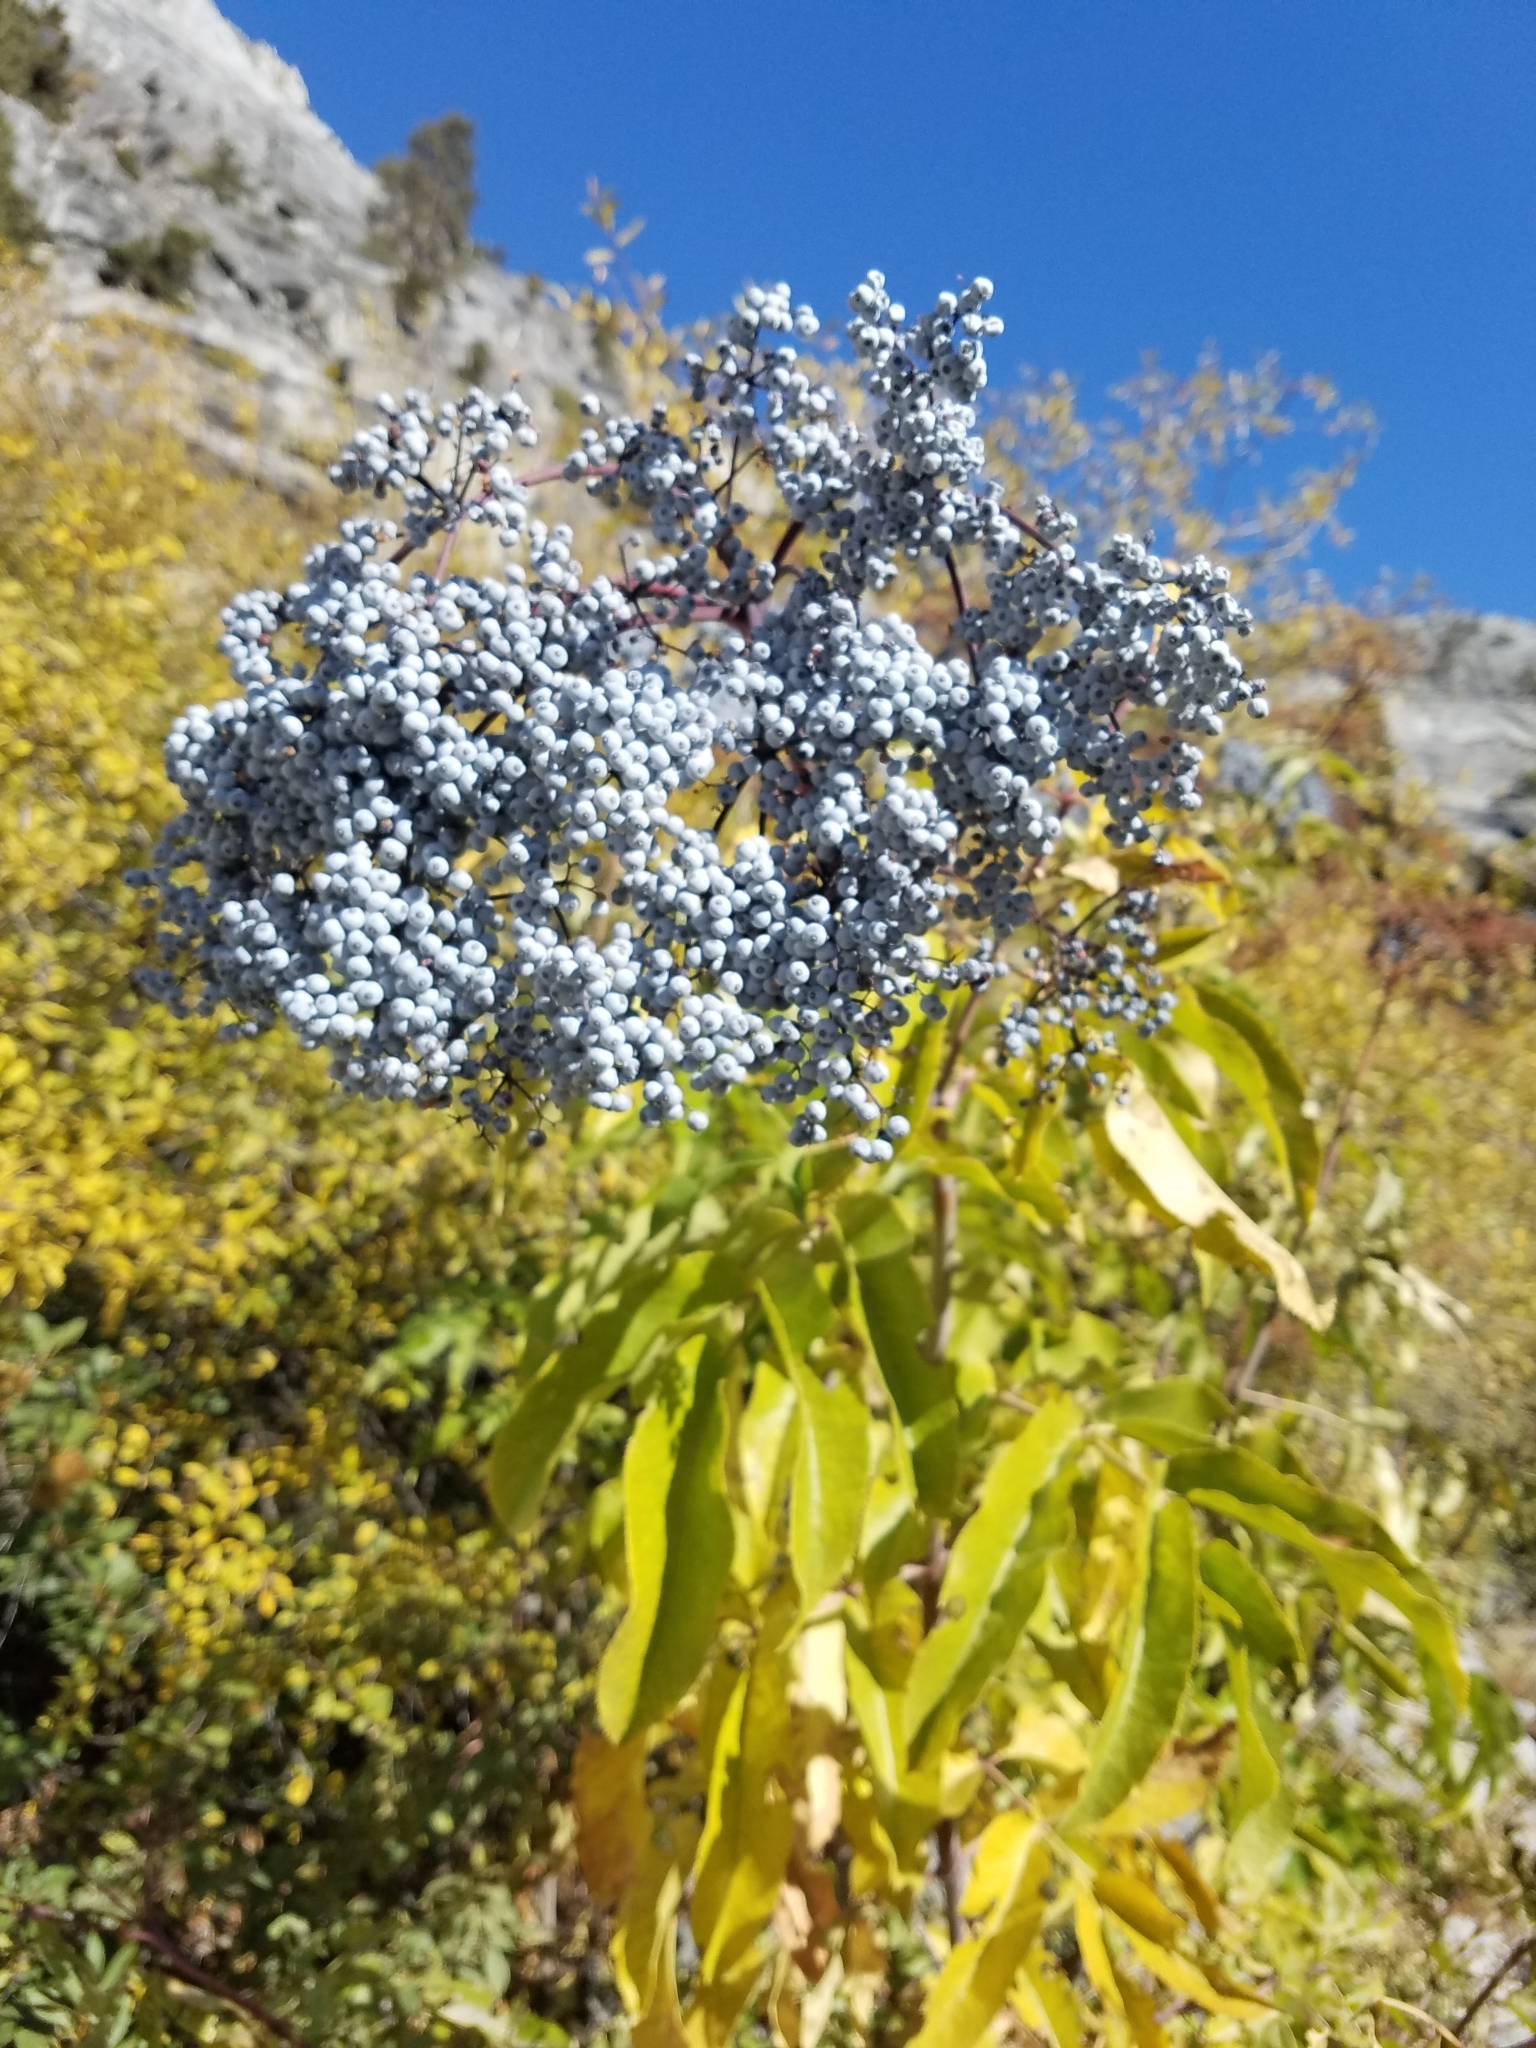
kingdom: Plantae
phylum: Tracheophyta
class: Magnoliopsida
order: Dipsacales
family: Viburnaceae
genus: Sambucus
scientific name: Sambucus cerulea
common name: Blue elder
